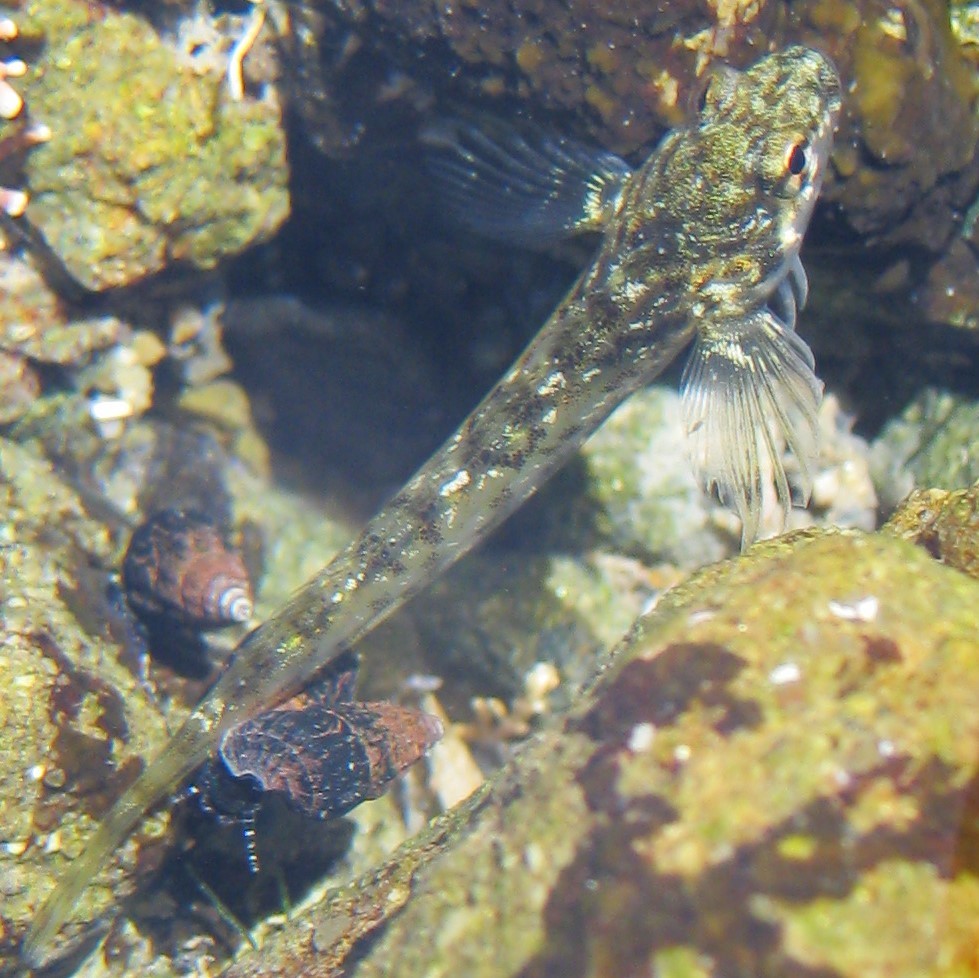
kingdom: Animalia
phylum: Chordata
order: Perciformes
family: Tripterygiidae
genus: Bellapiscis
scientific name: Bellapiscis medius
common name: Twister
